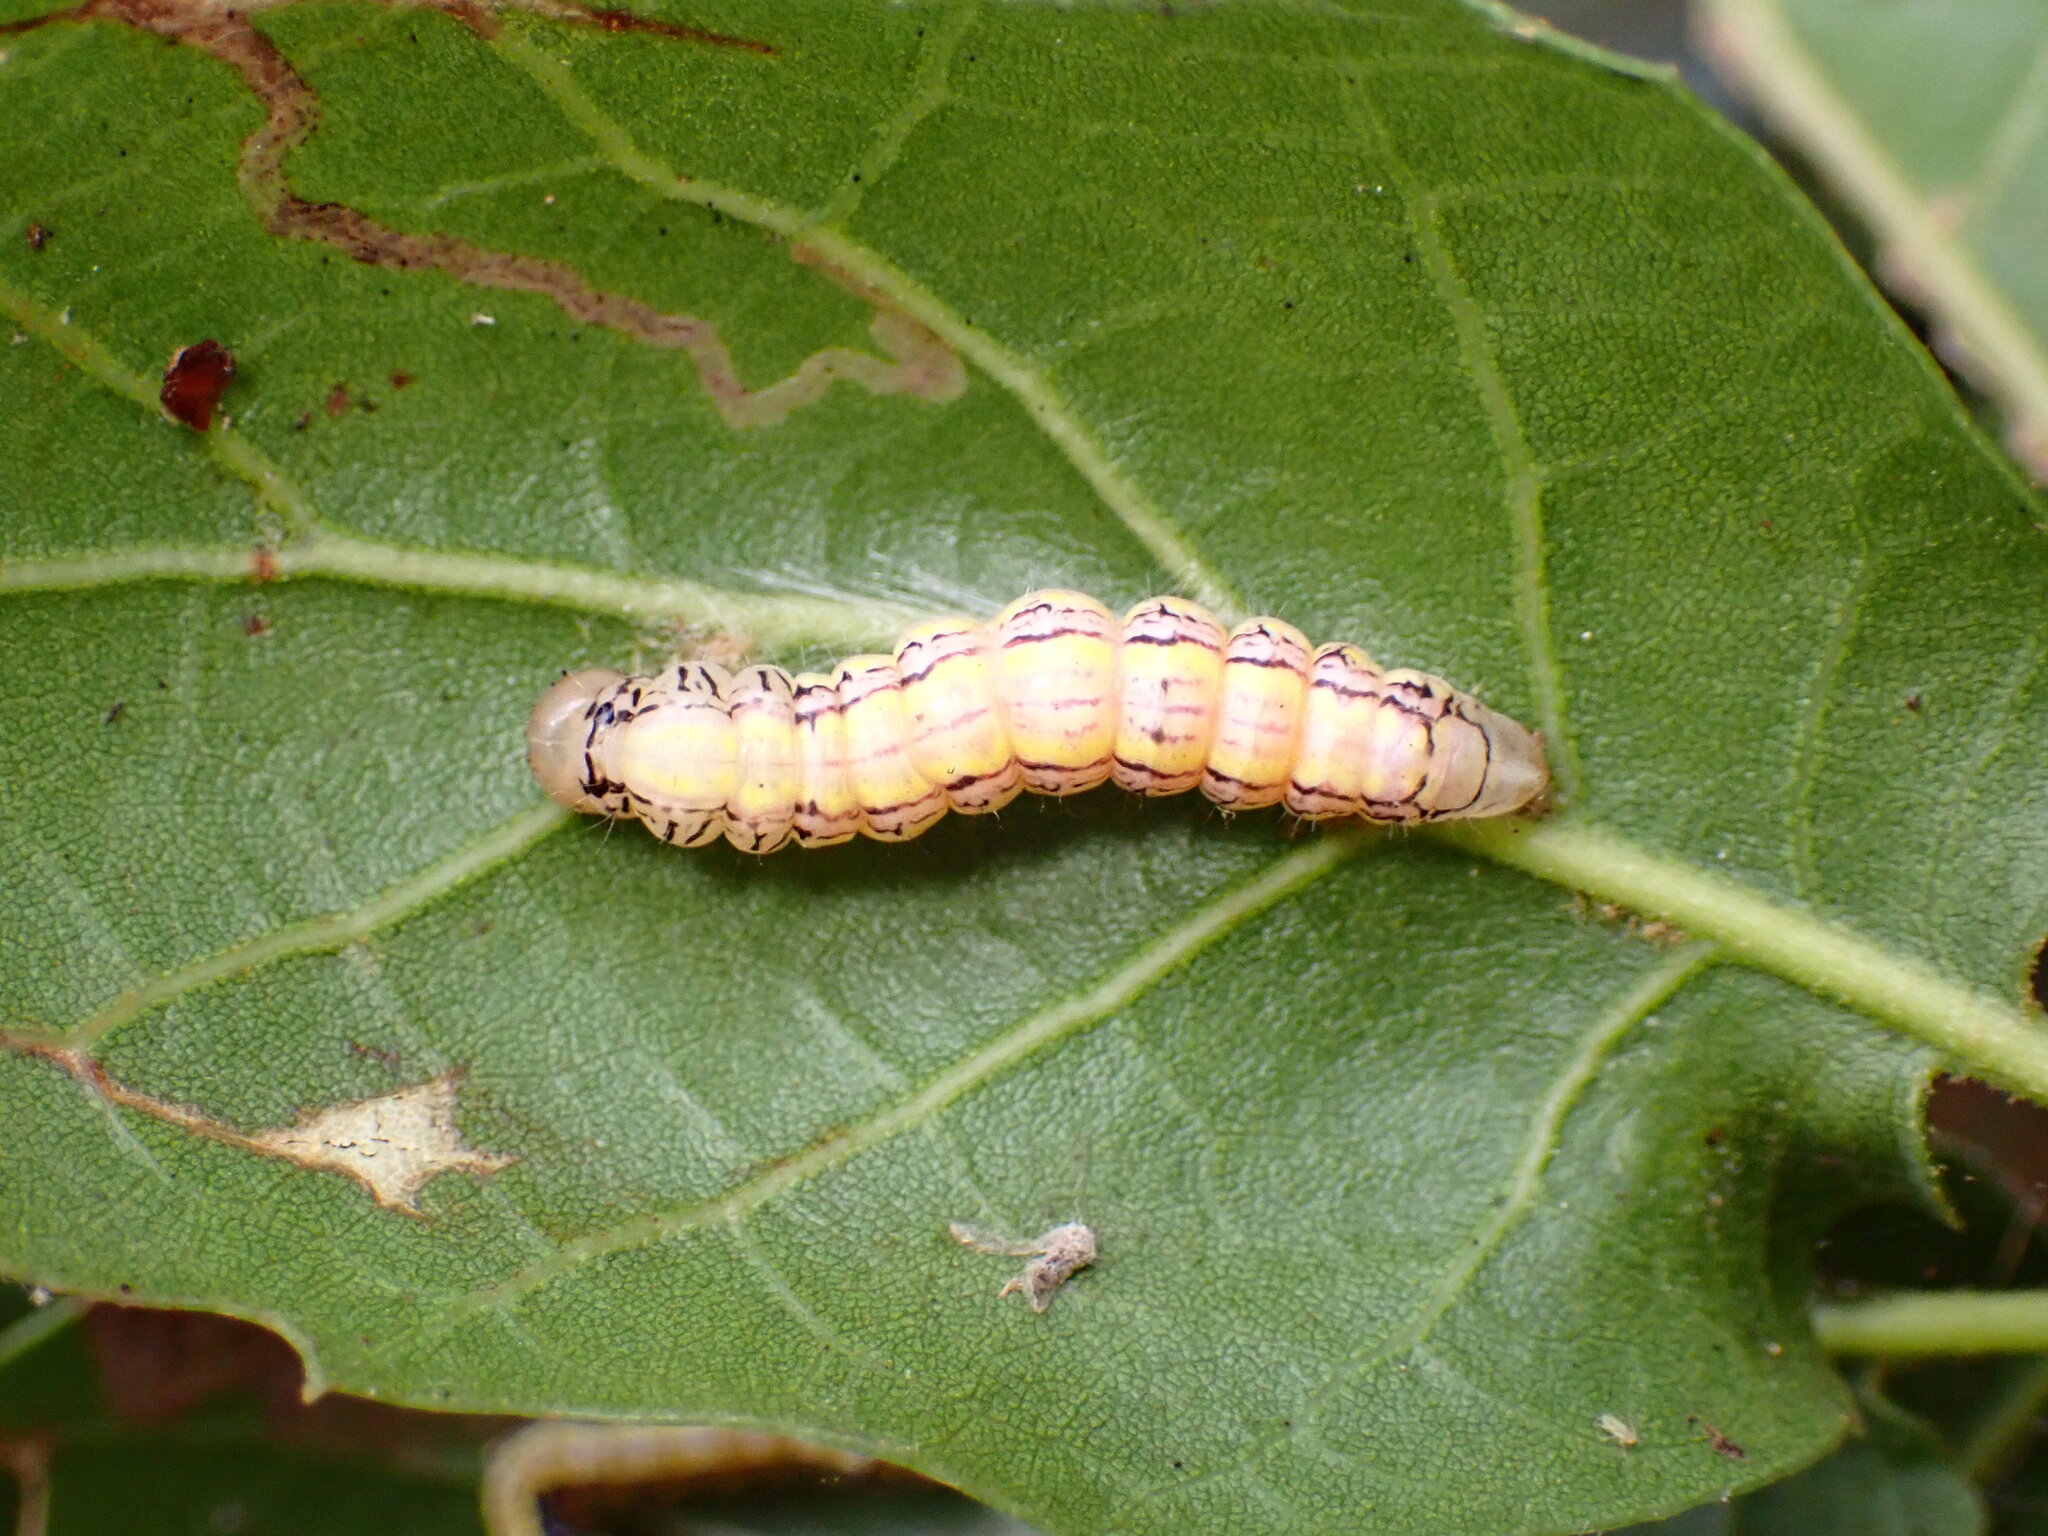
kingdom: Animalia
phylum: Arthropoda
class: Insecta
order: Lepidoptera
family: Notodontidae
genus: Phryganidia
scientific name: Phryganidia californica
